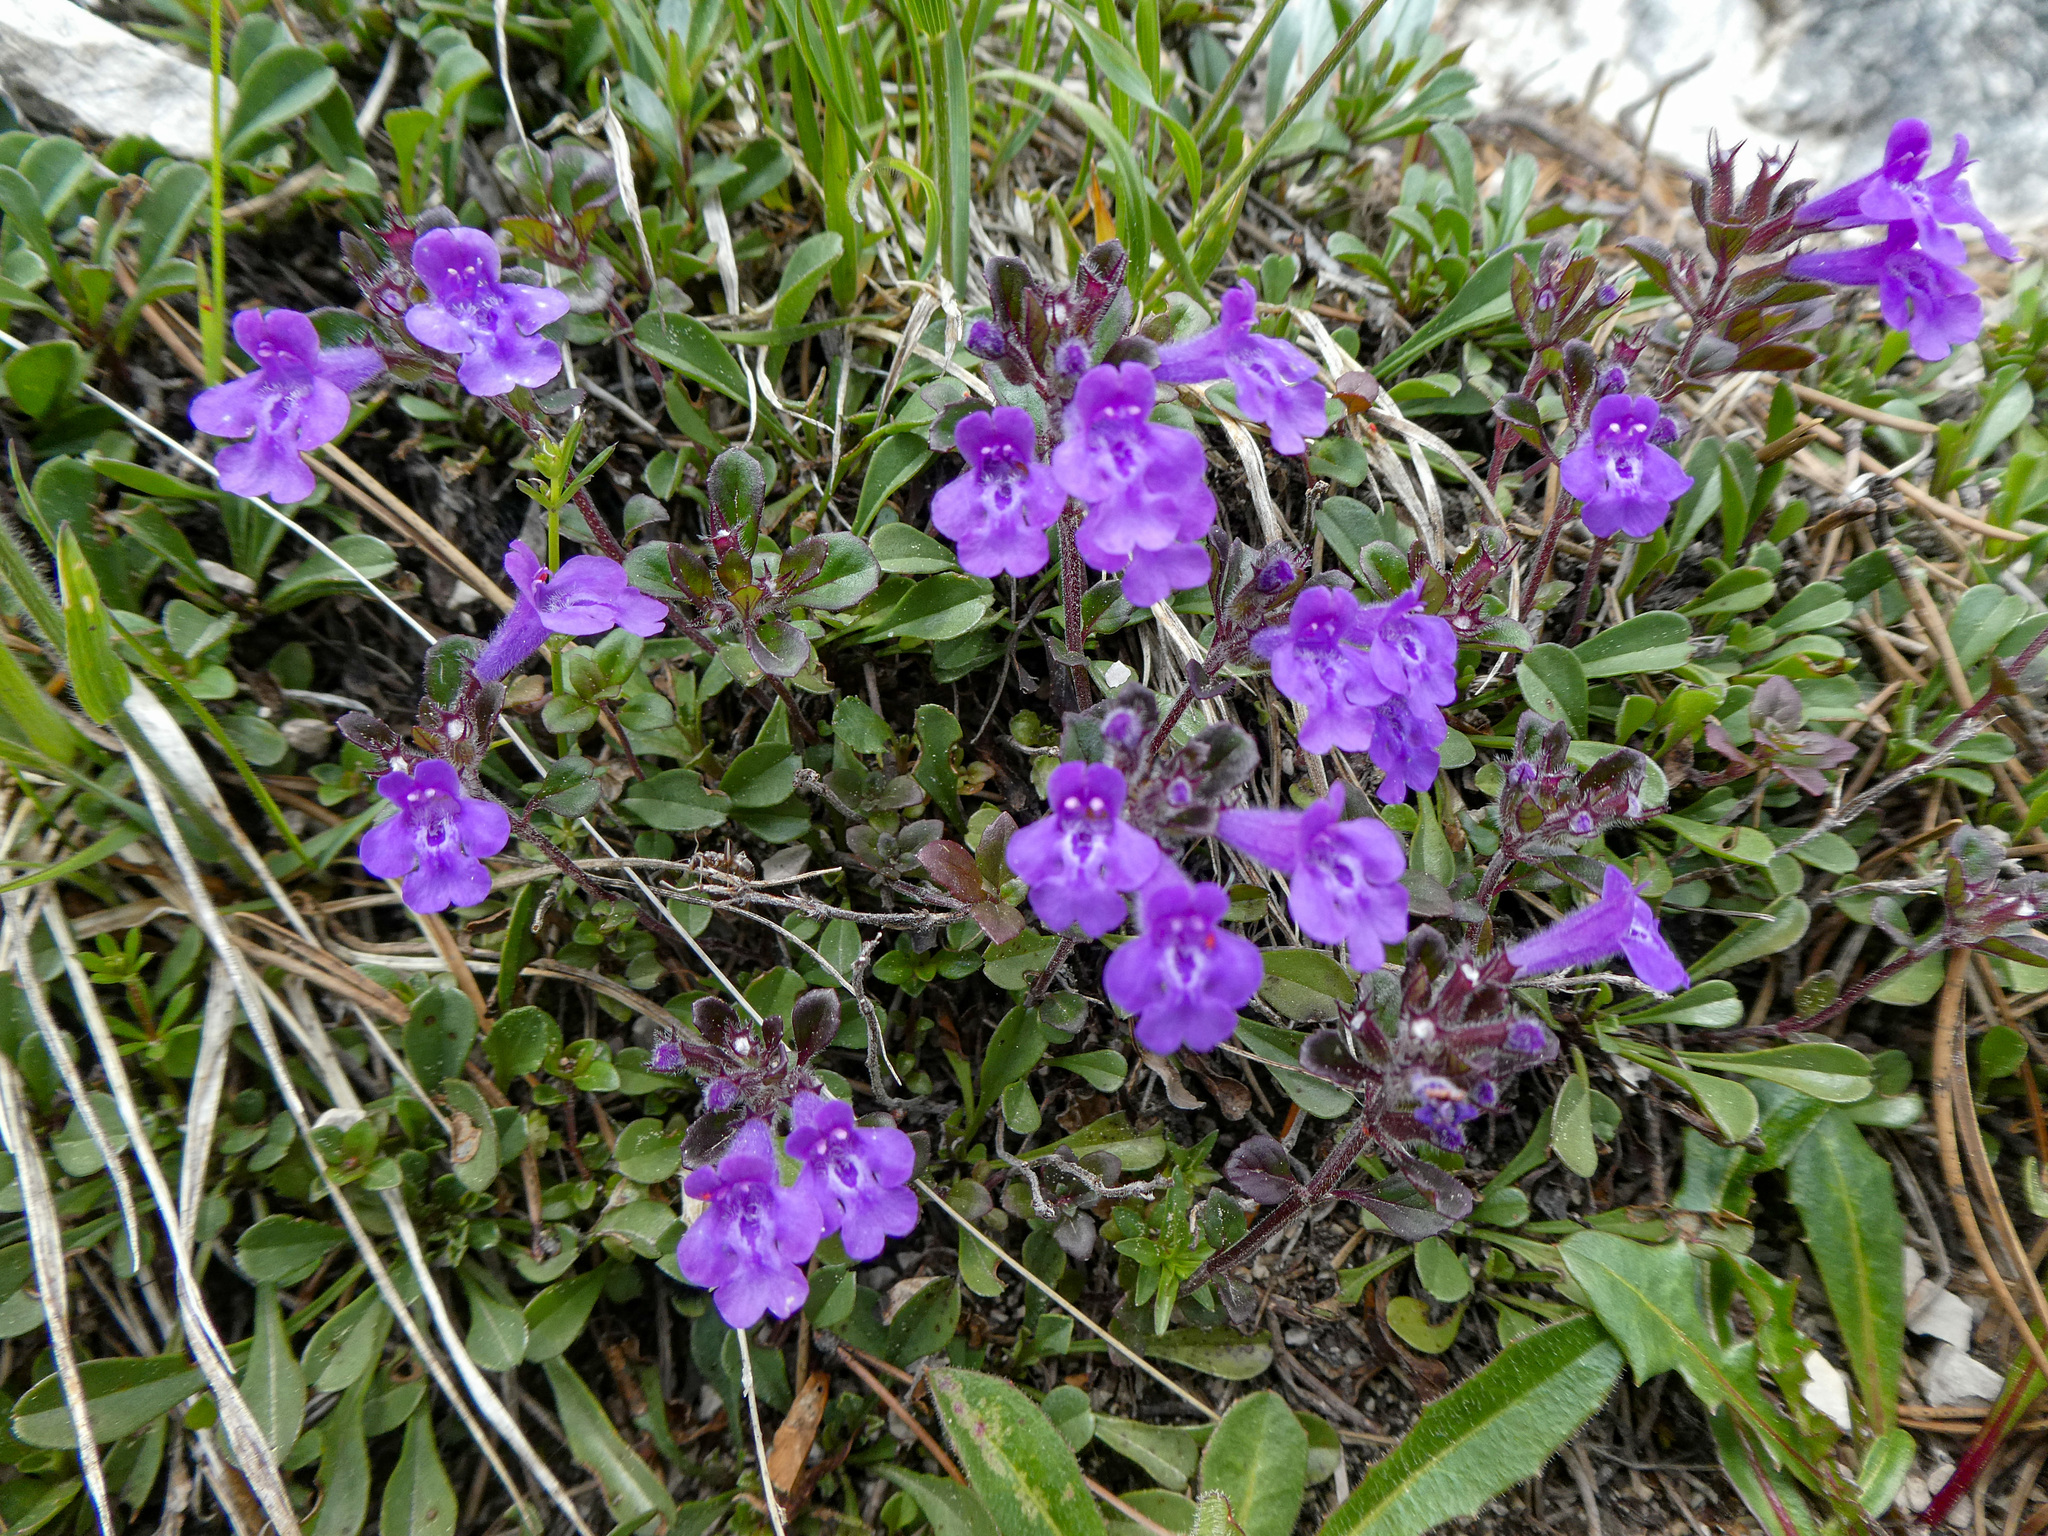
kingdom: Plantae
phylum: Tracheophyta
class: Magnoliopsida
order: Lamiales
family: Lamiaceae
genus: Clinopodium
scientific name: Clinopodium alpinum
